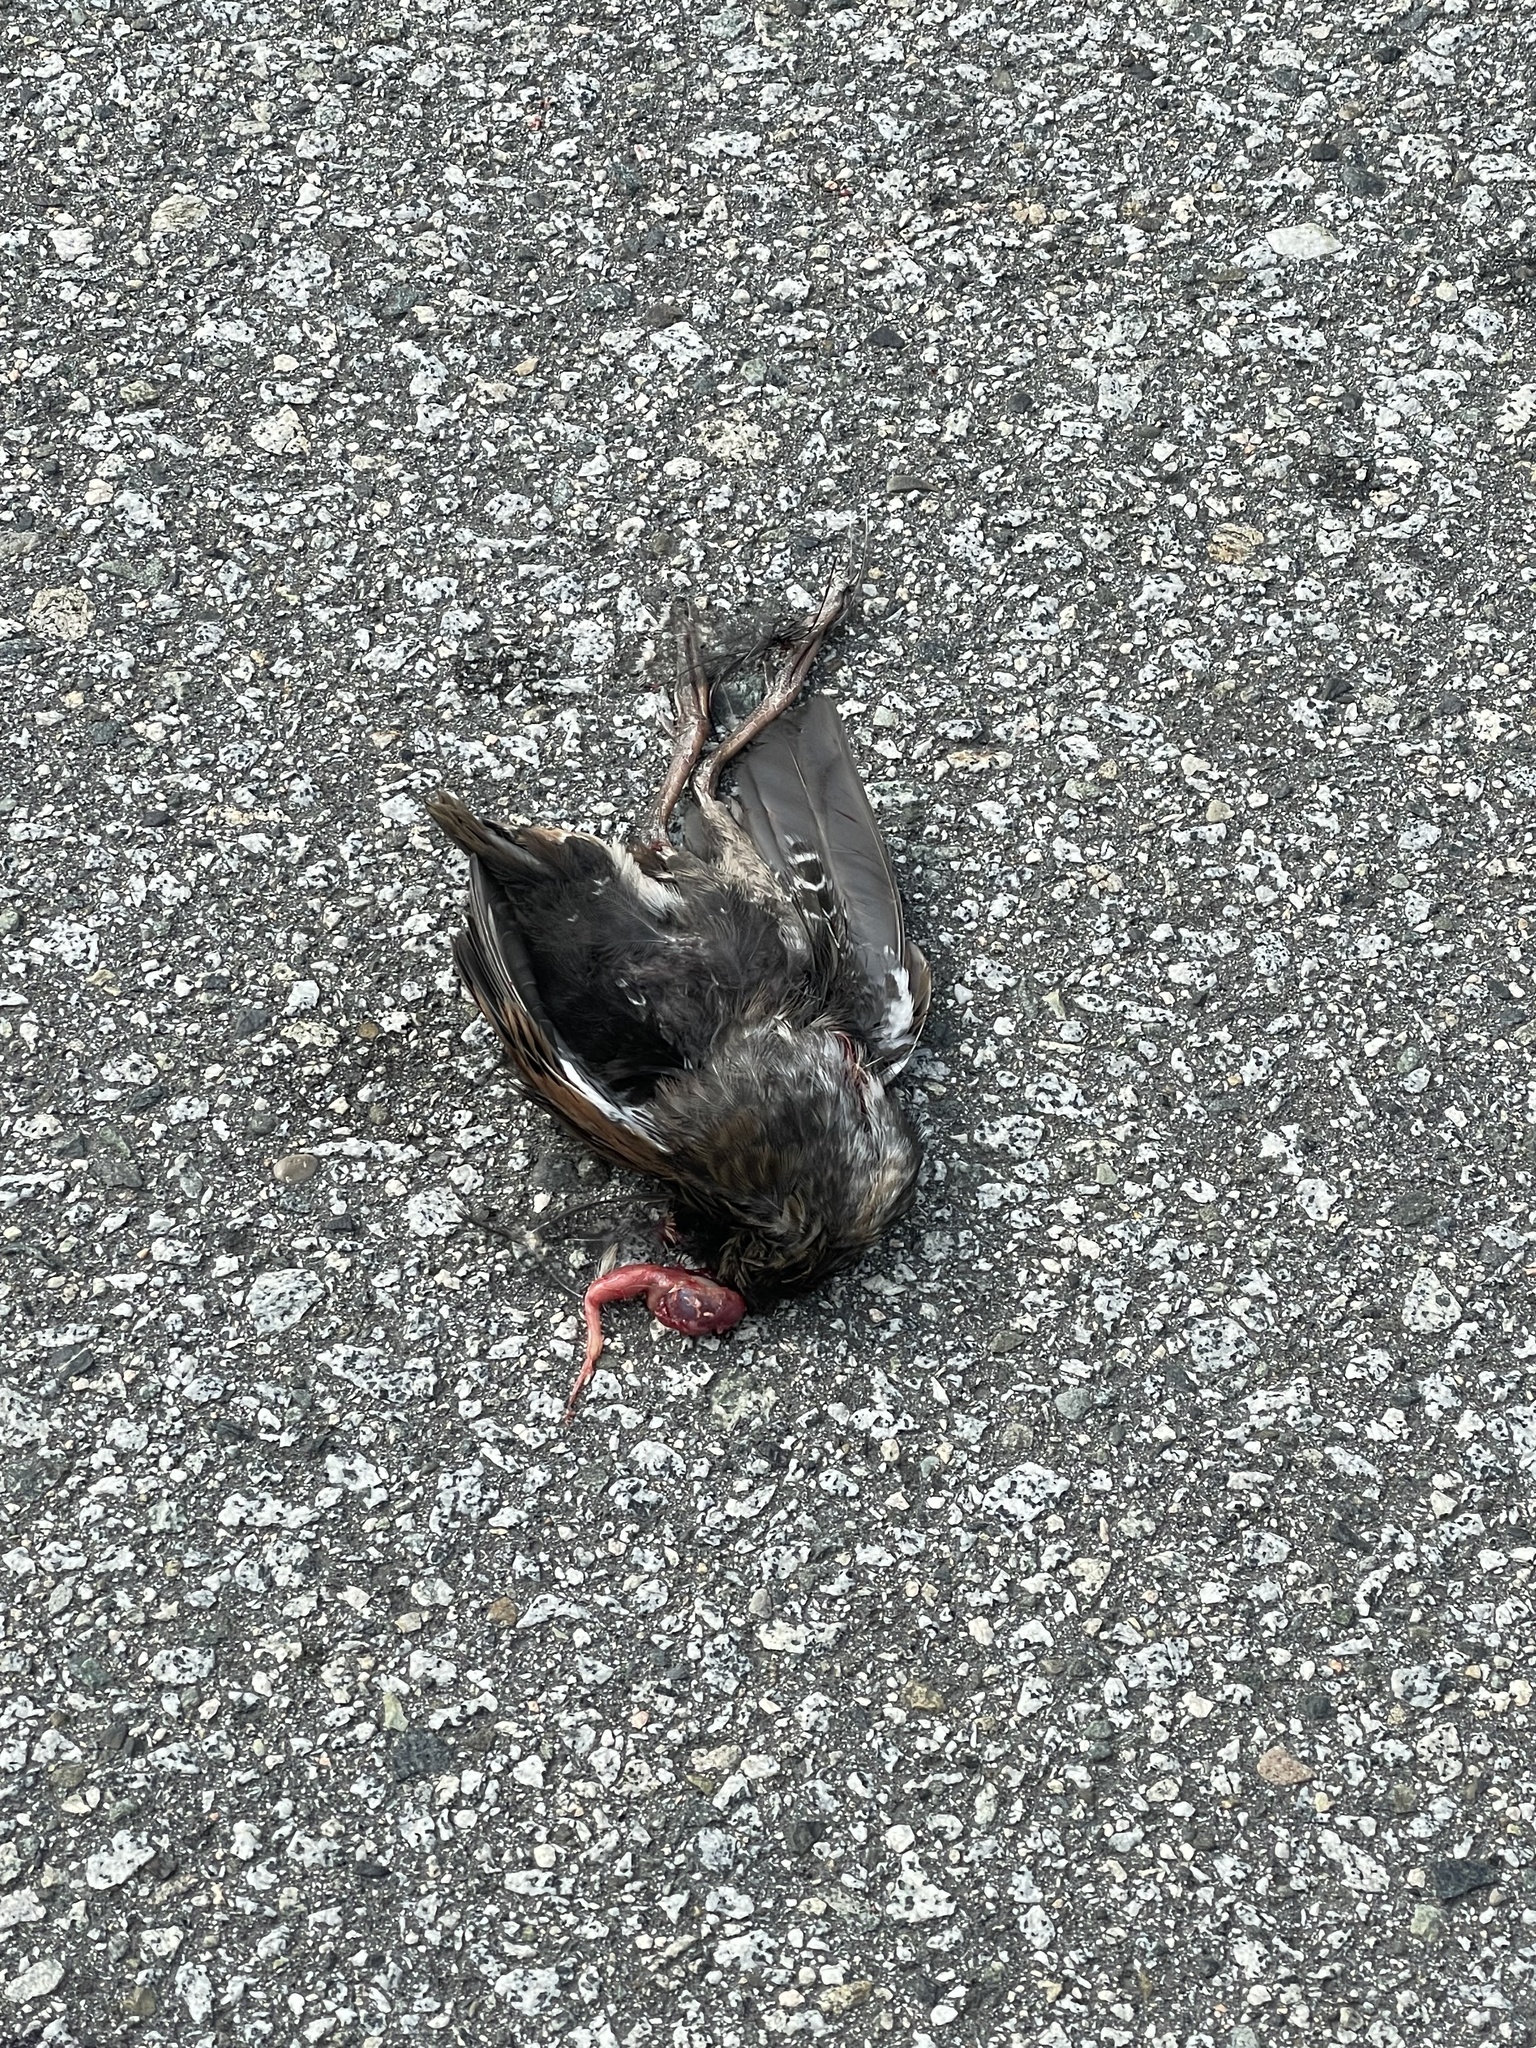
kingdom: Animalia
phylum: Chordata
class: Aves
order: Gruiformes
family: Rallidae
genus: Rallus
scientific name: Rallus limicola
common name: Virginia rail
